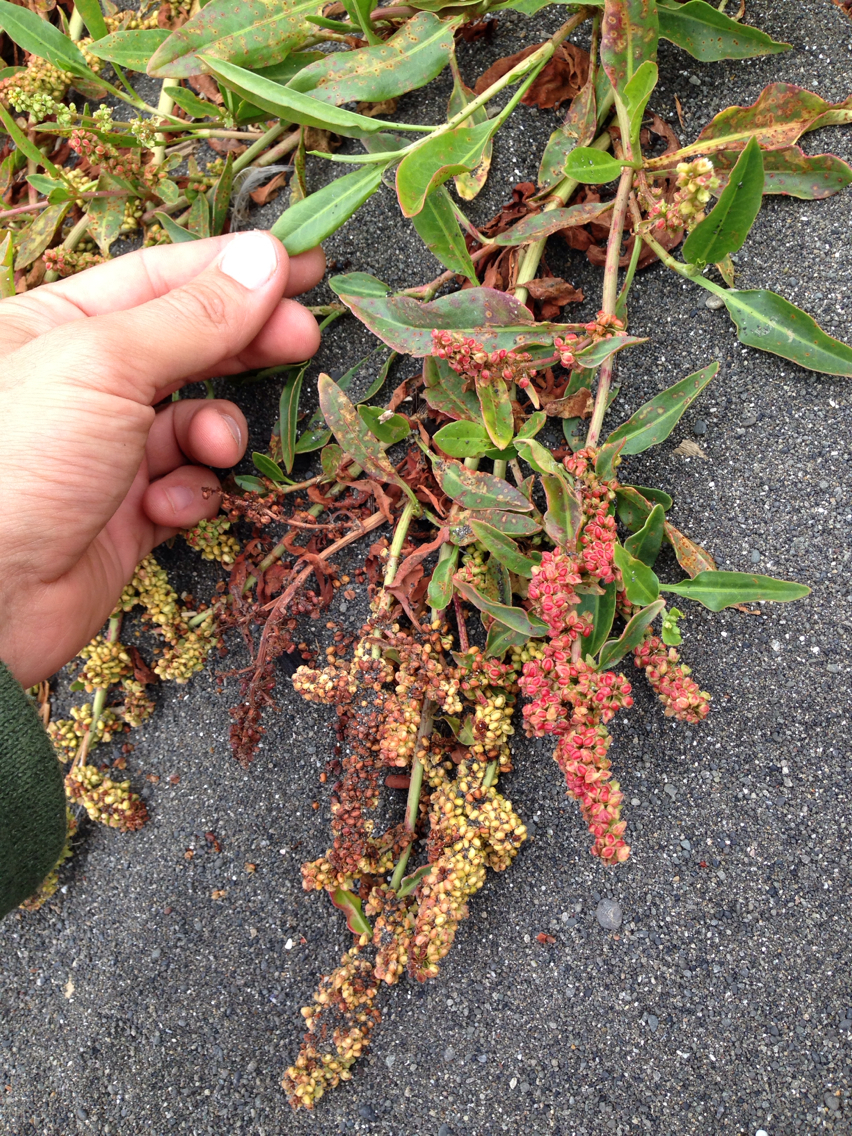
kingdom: Plantae
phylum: Tracheophyta
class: Magnoliopsida
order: Caryophyllales
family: Polygonaceae
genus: Rumex
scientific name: Rumex crassus
